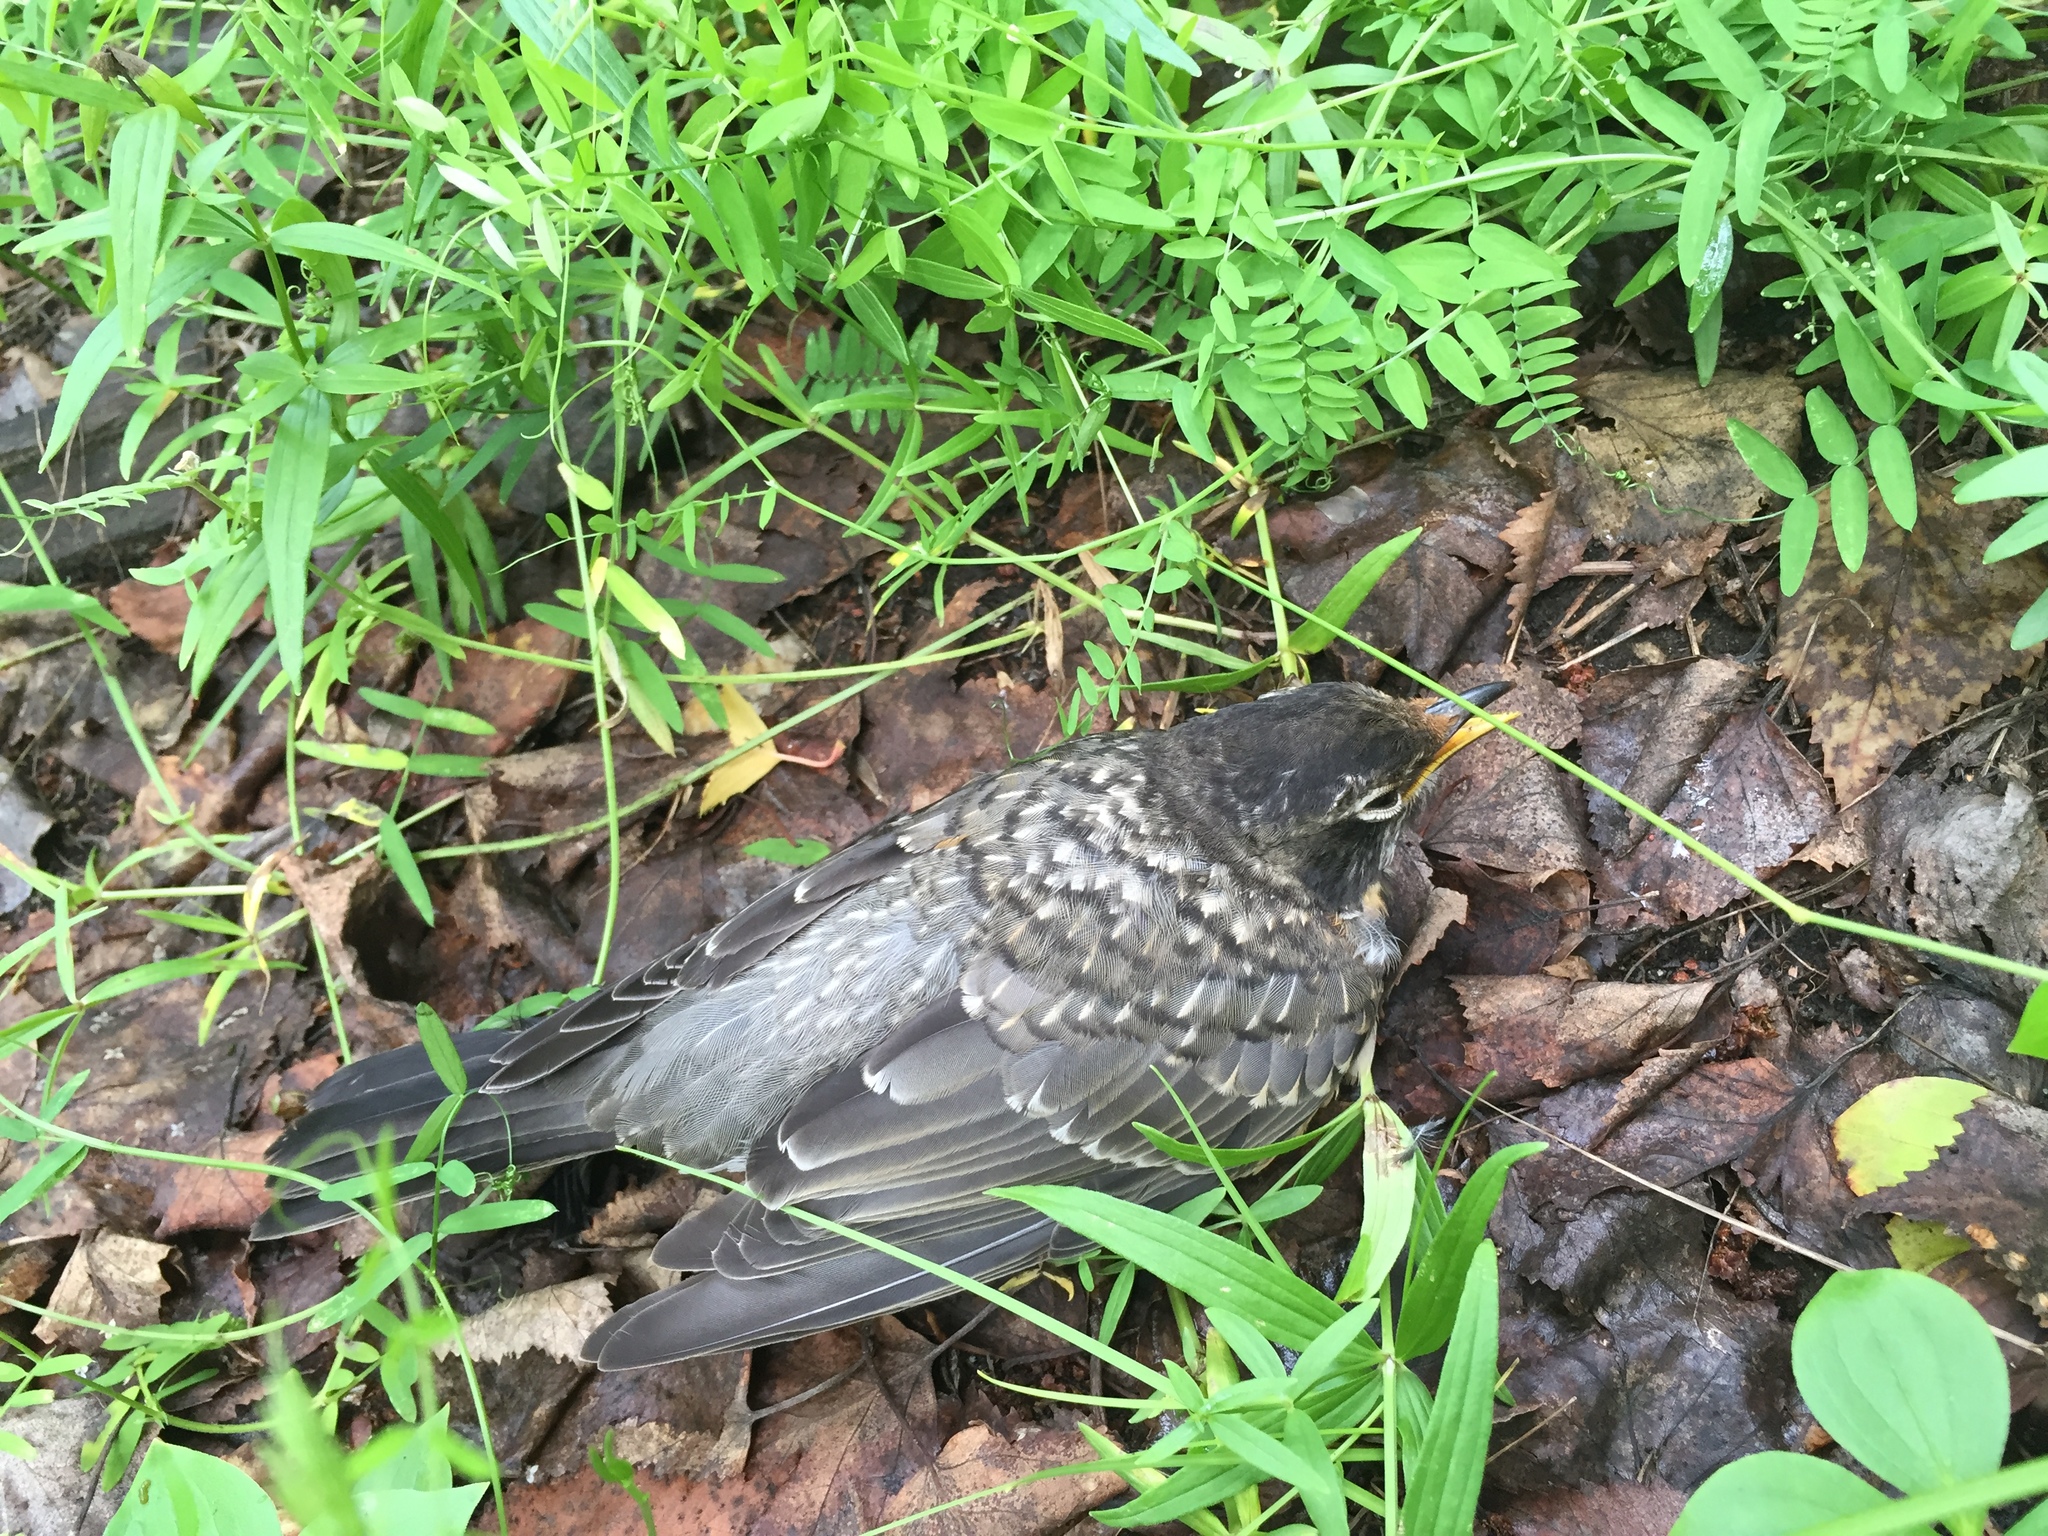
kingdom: Animalia
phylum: Chordata
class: Aves
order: Passeriformes
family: Turdidae
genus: Turdus
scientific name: Turdus migratorius
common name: American robin
